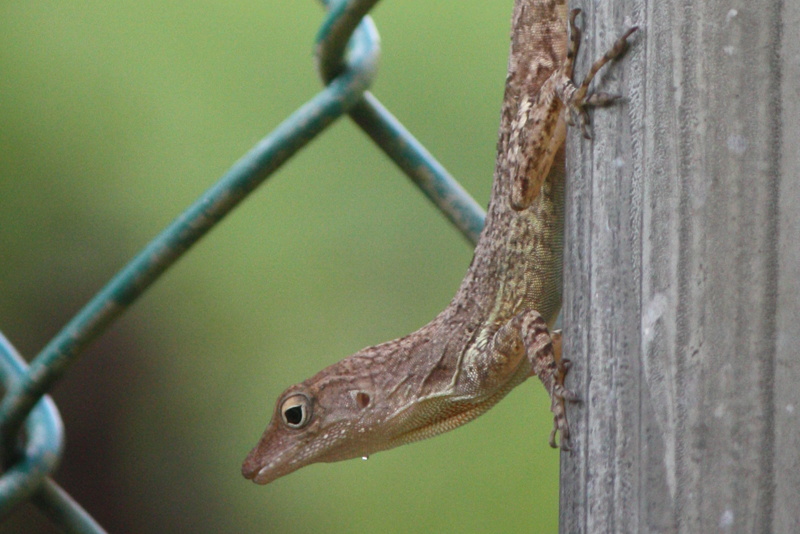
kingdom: Animalia
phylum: Chordata
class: Squamata
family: Dactyloidae
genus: Anolis
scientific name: Anolis lineatopus
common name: Stripefoot anole
